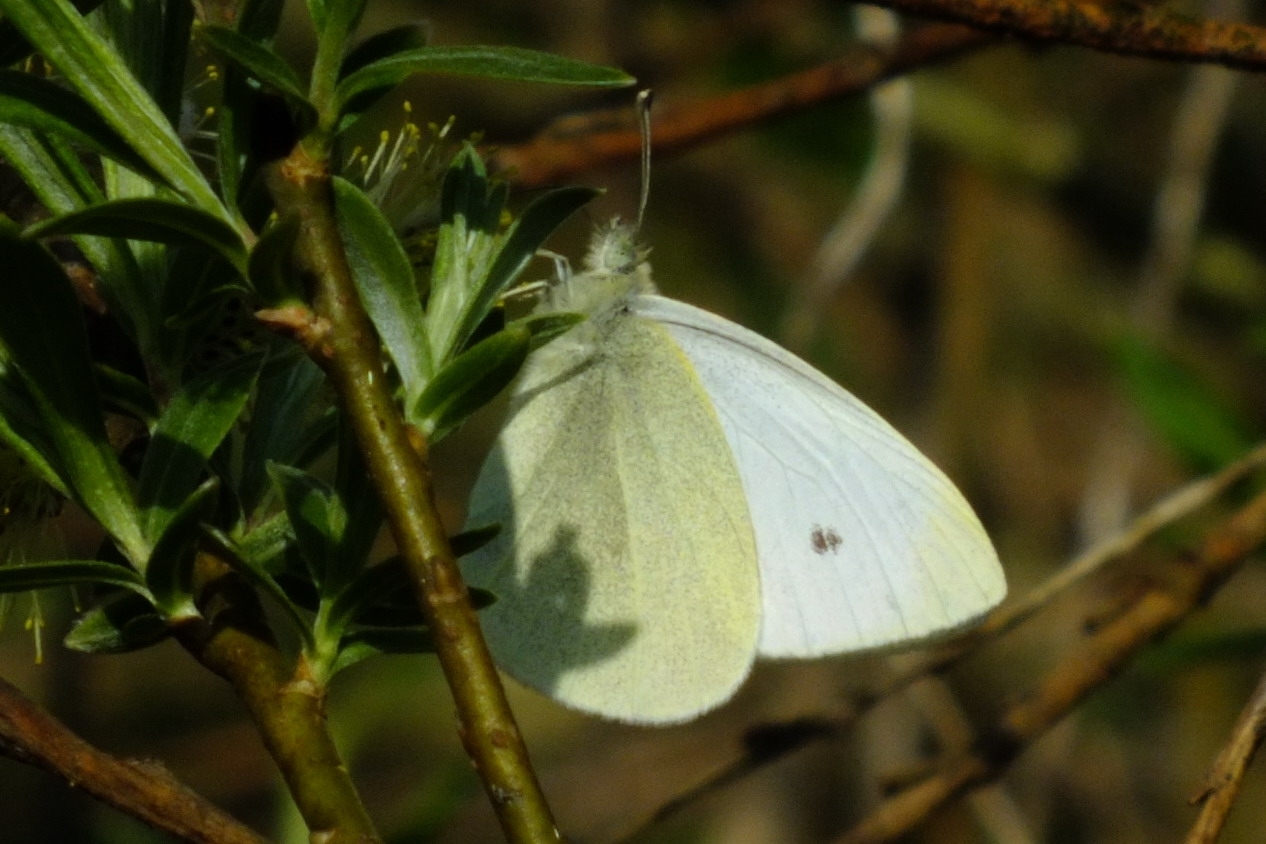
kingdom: Animalia
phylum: Arthropoda
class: Insecta
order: Lepidoptera
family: Pieridae
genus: Pieris
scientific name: Pieris rapae
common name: Small white
